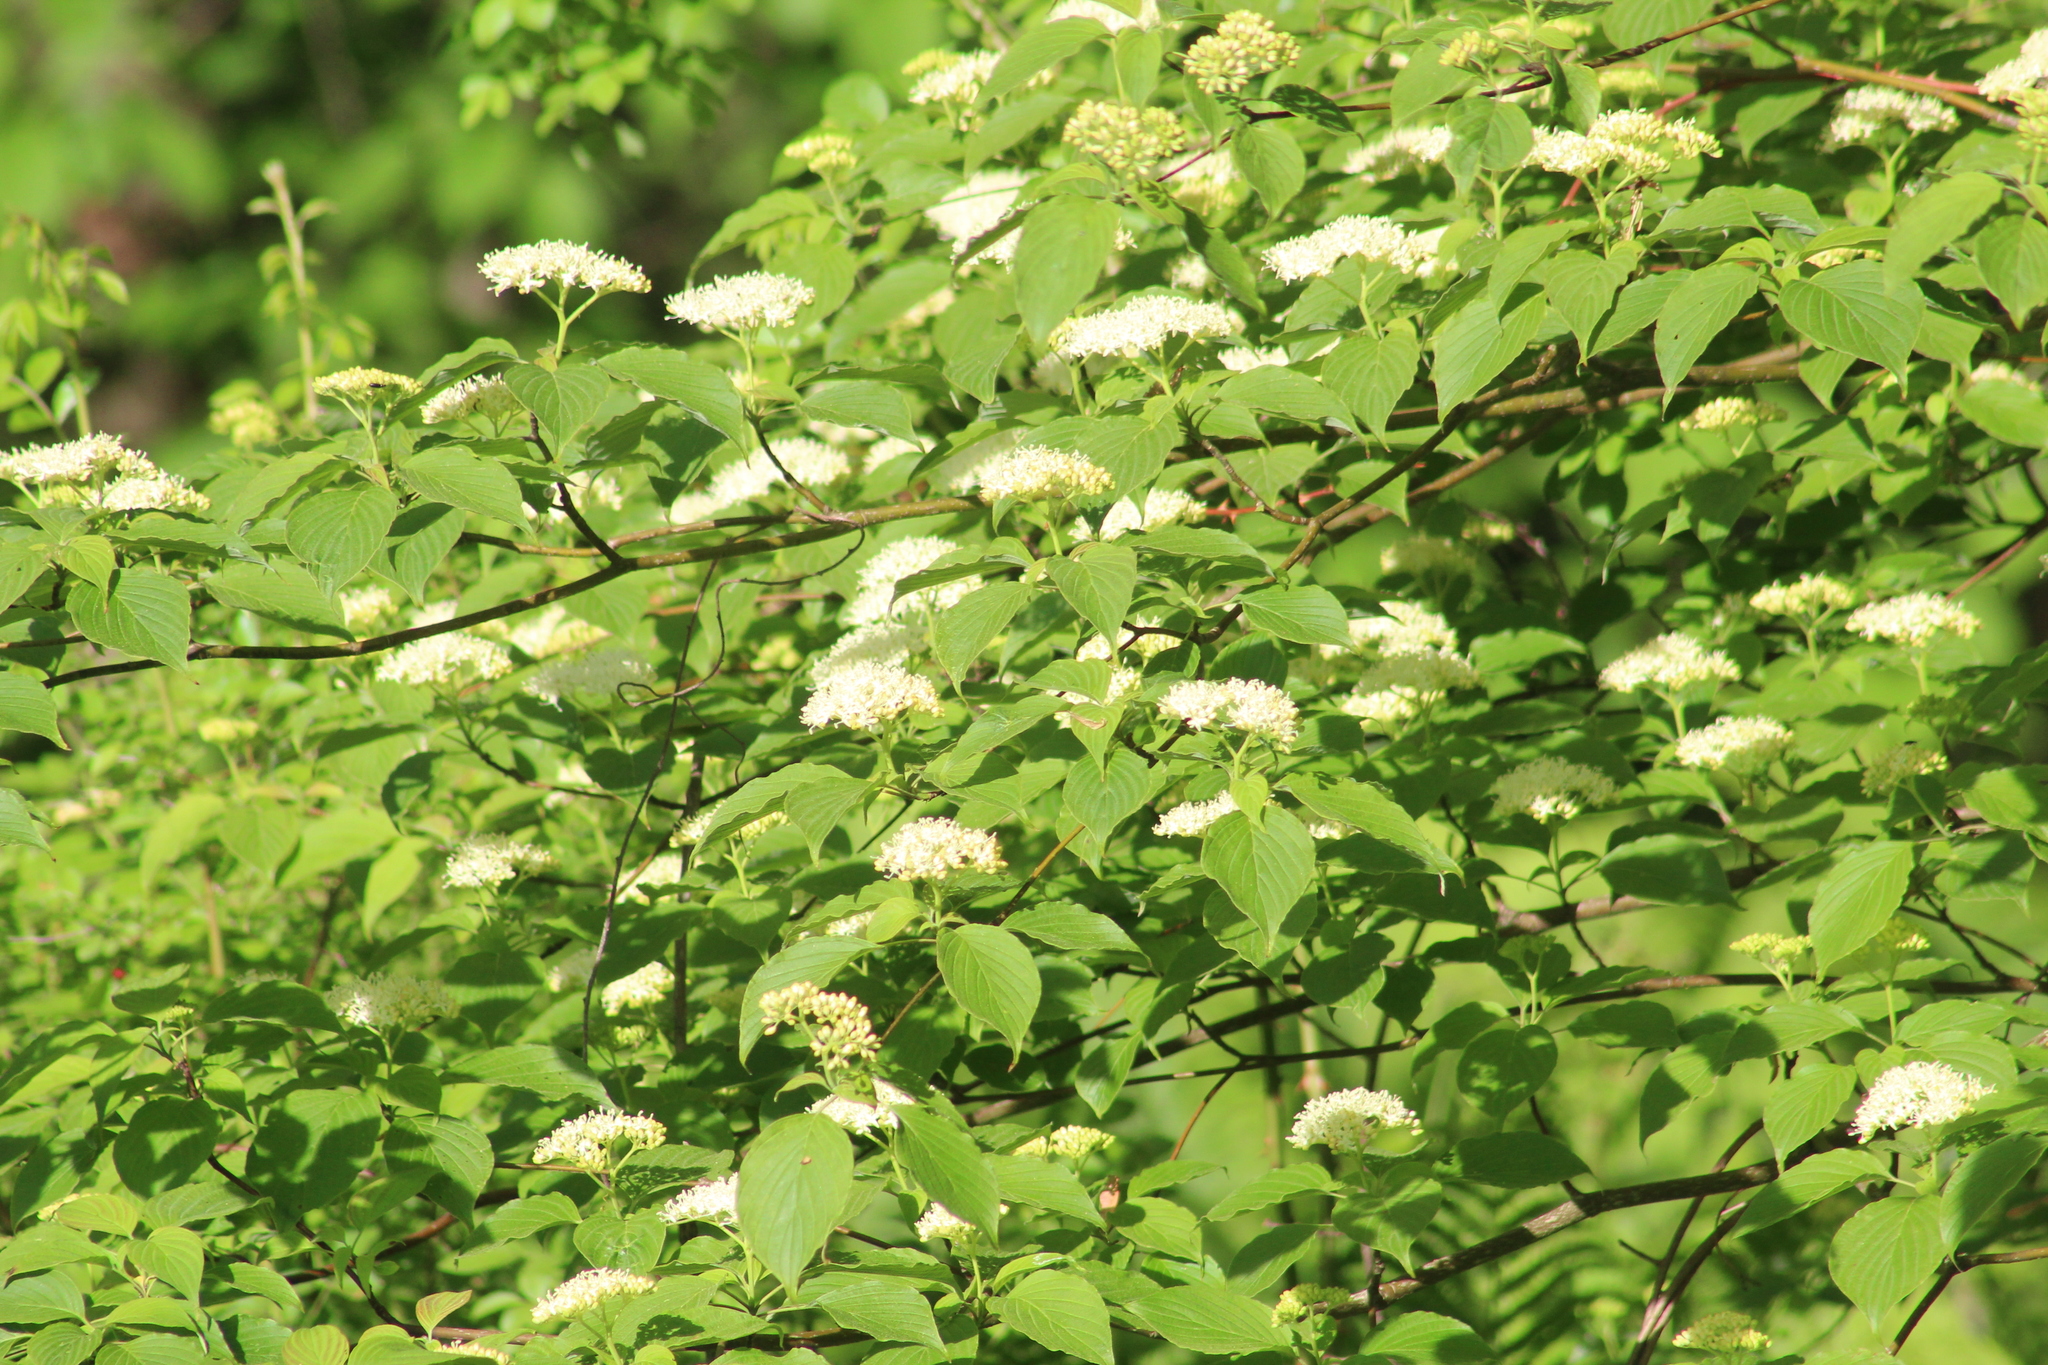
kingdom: Plantae
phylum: Tracheophyta
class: Magnoliopsida
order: Cornales
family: Cornaceae
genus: Cornus
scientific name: Cornus alternifolia
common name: Pagoda dogwood
